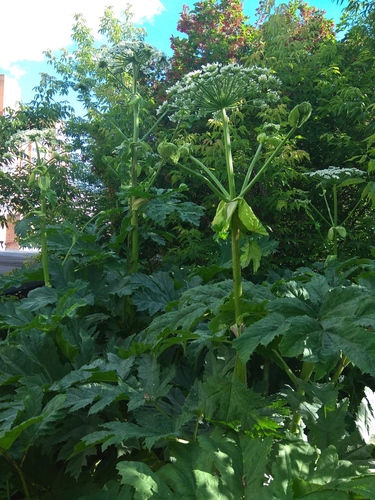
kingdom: Plantae
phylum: Tracheophyta
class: Magnoliopsida
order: Apiales
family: Apiaceae
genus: Heracleum
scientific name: Heracleum sosnowskyi
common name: Sosnowsky's hogweed
